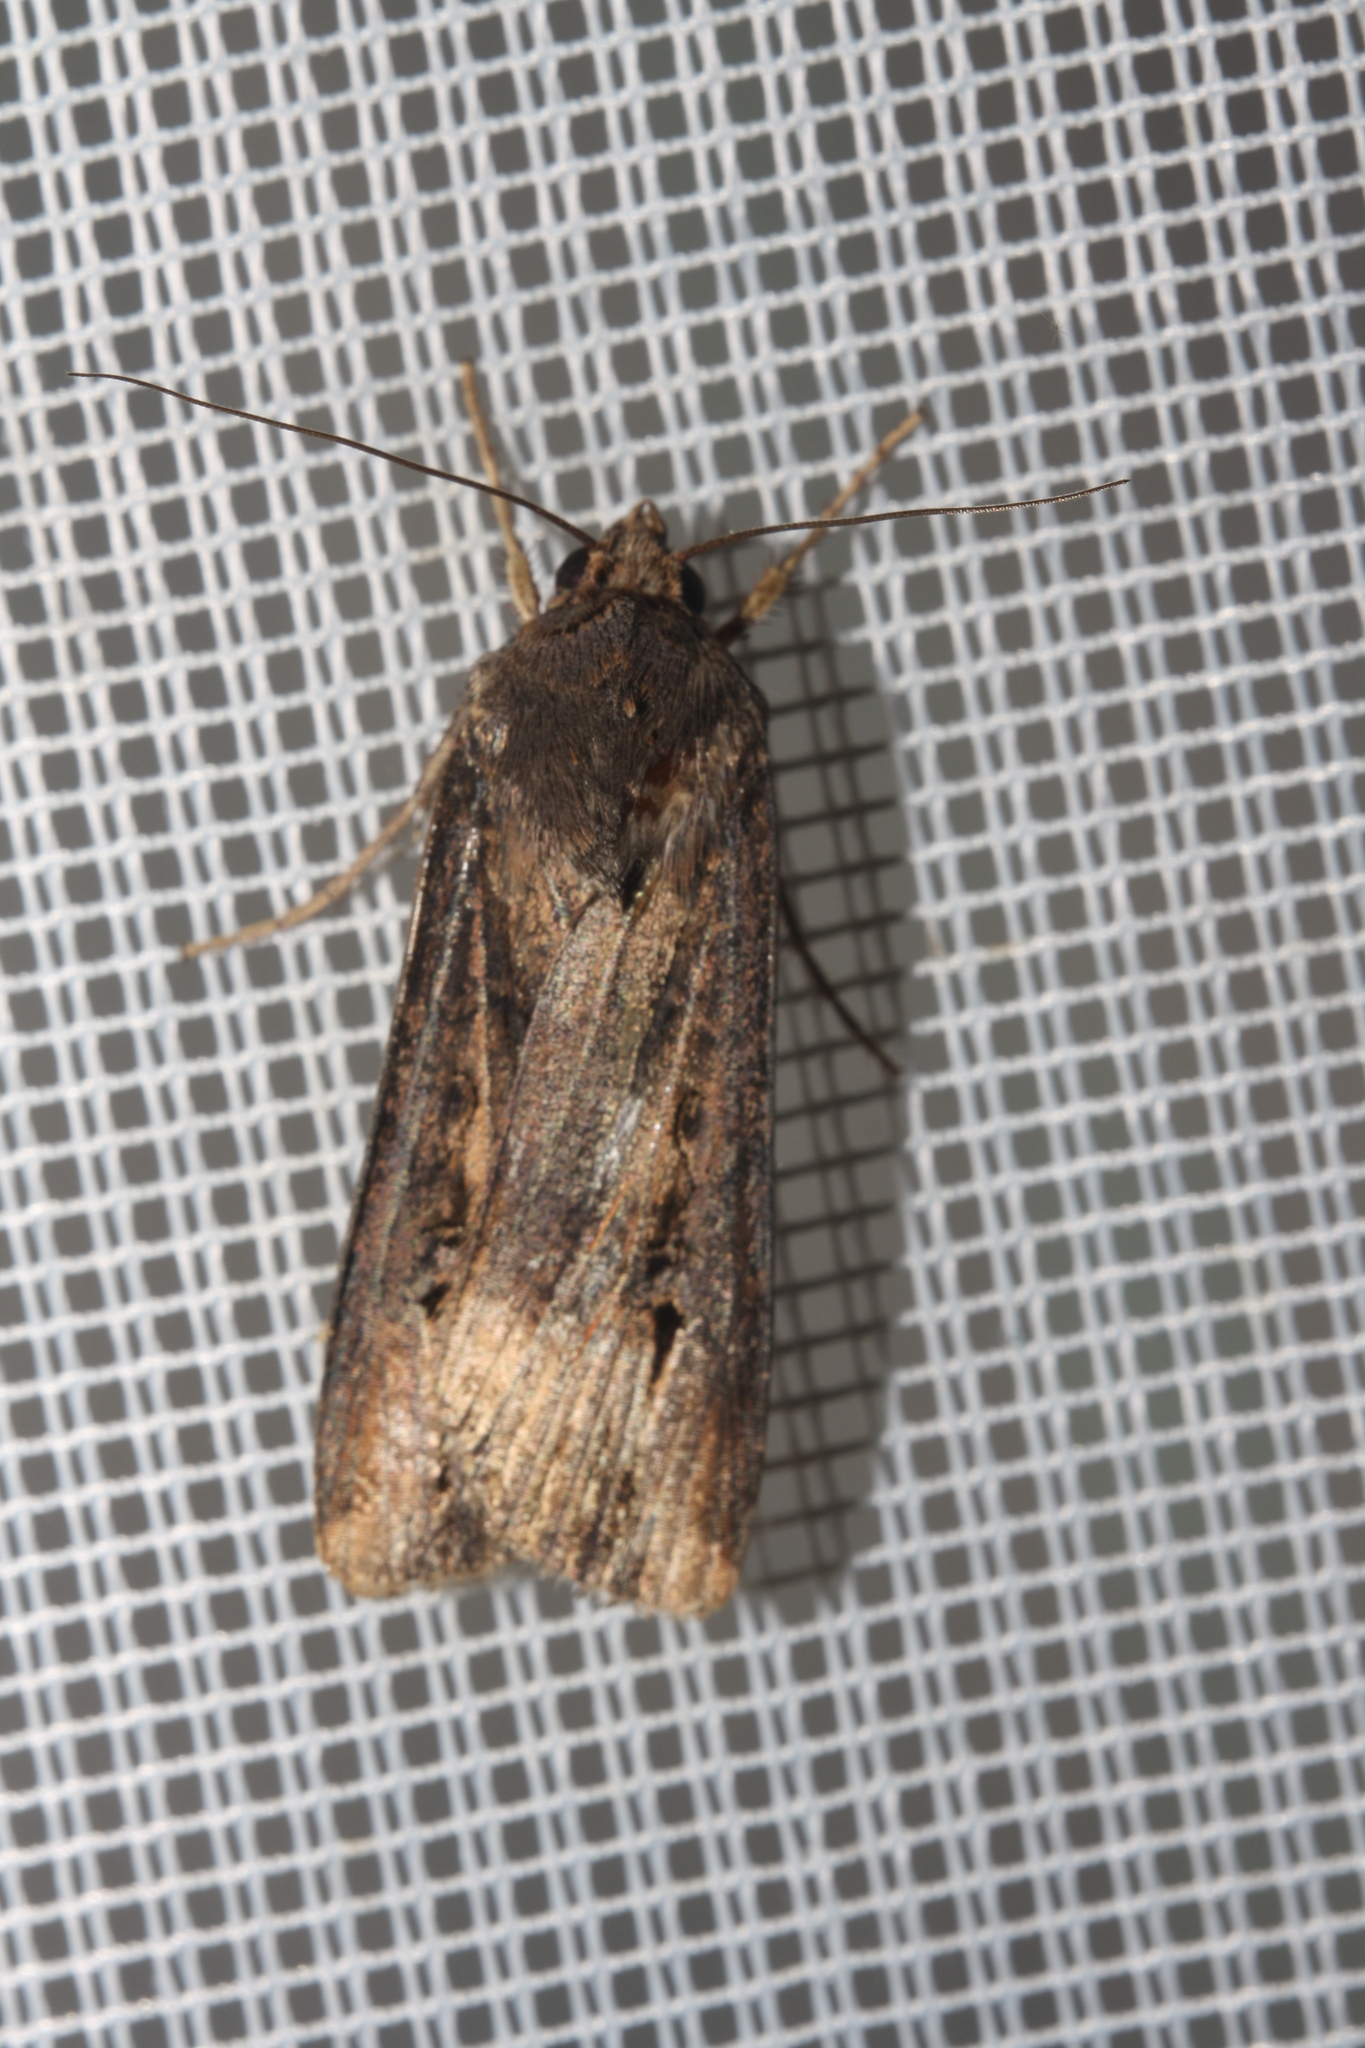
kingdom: Animalia
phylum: Arthropoda
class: Insecta
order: Lepidoptera
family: Noctuidae
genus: Agrotis
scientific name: Agrotis ipsilon
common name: Dark sword-grass
